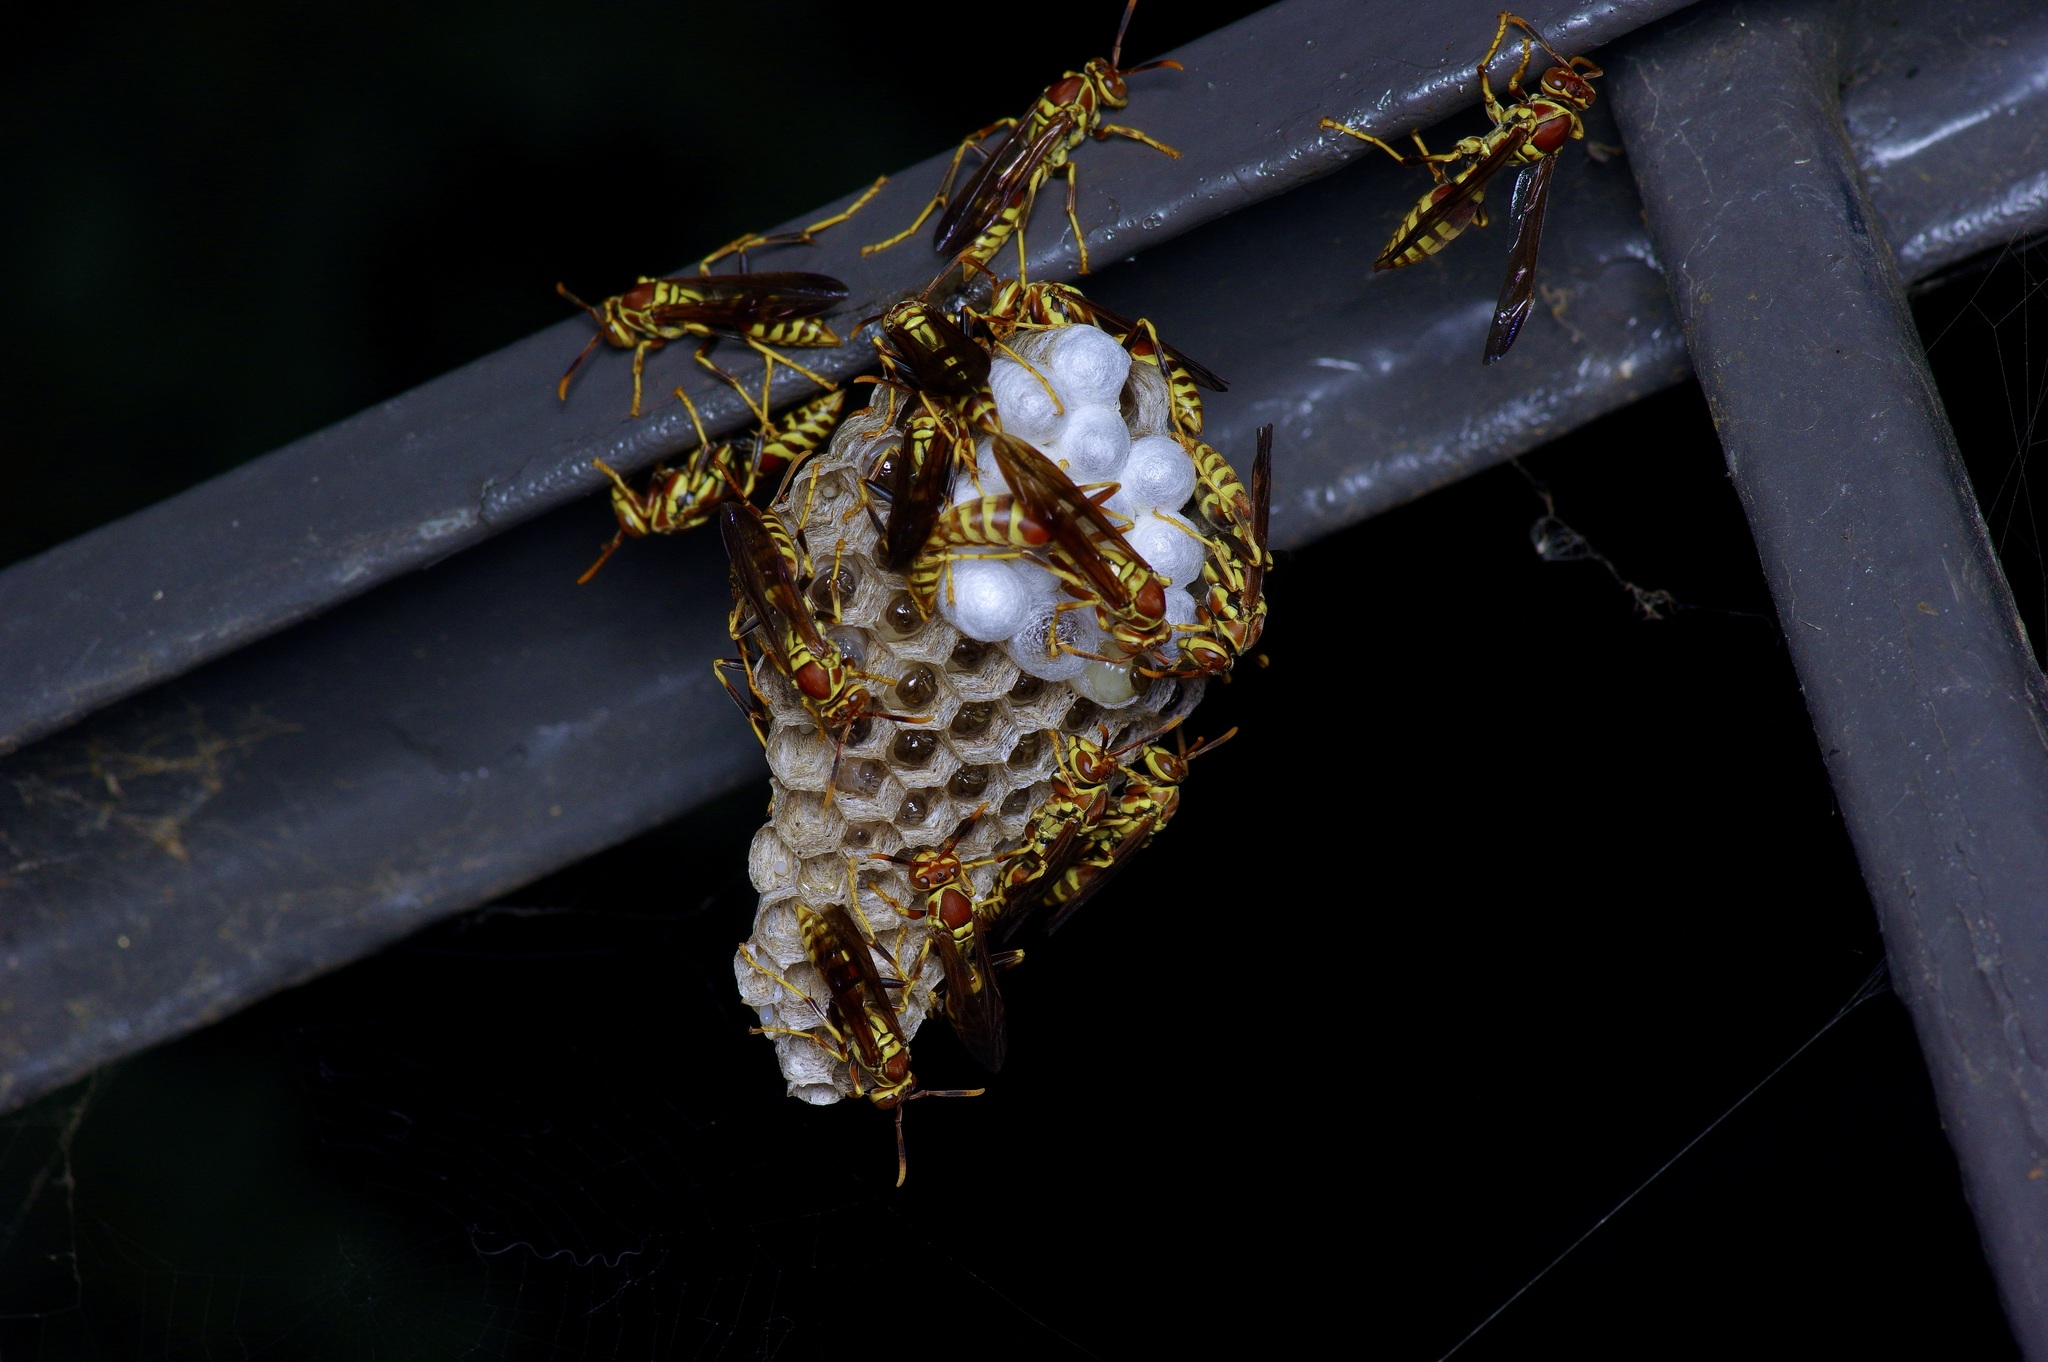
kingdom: Animalia
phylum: Arthropoda
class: Insecta
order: Hymenoptera
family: Eumenidae
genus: Polistes
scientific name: Polistes exclamans
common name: Paper wasp
